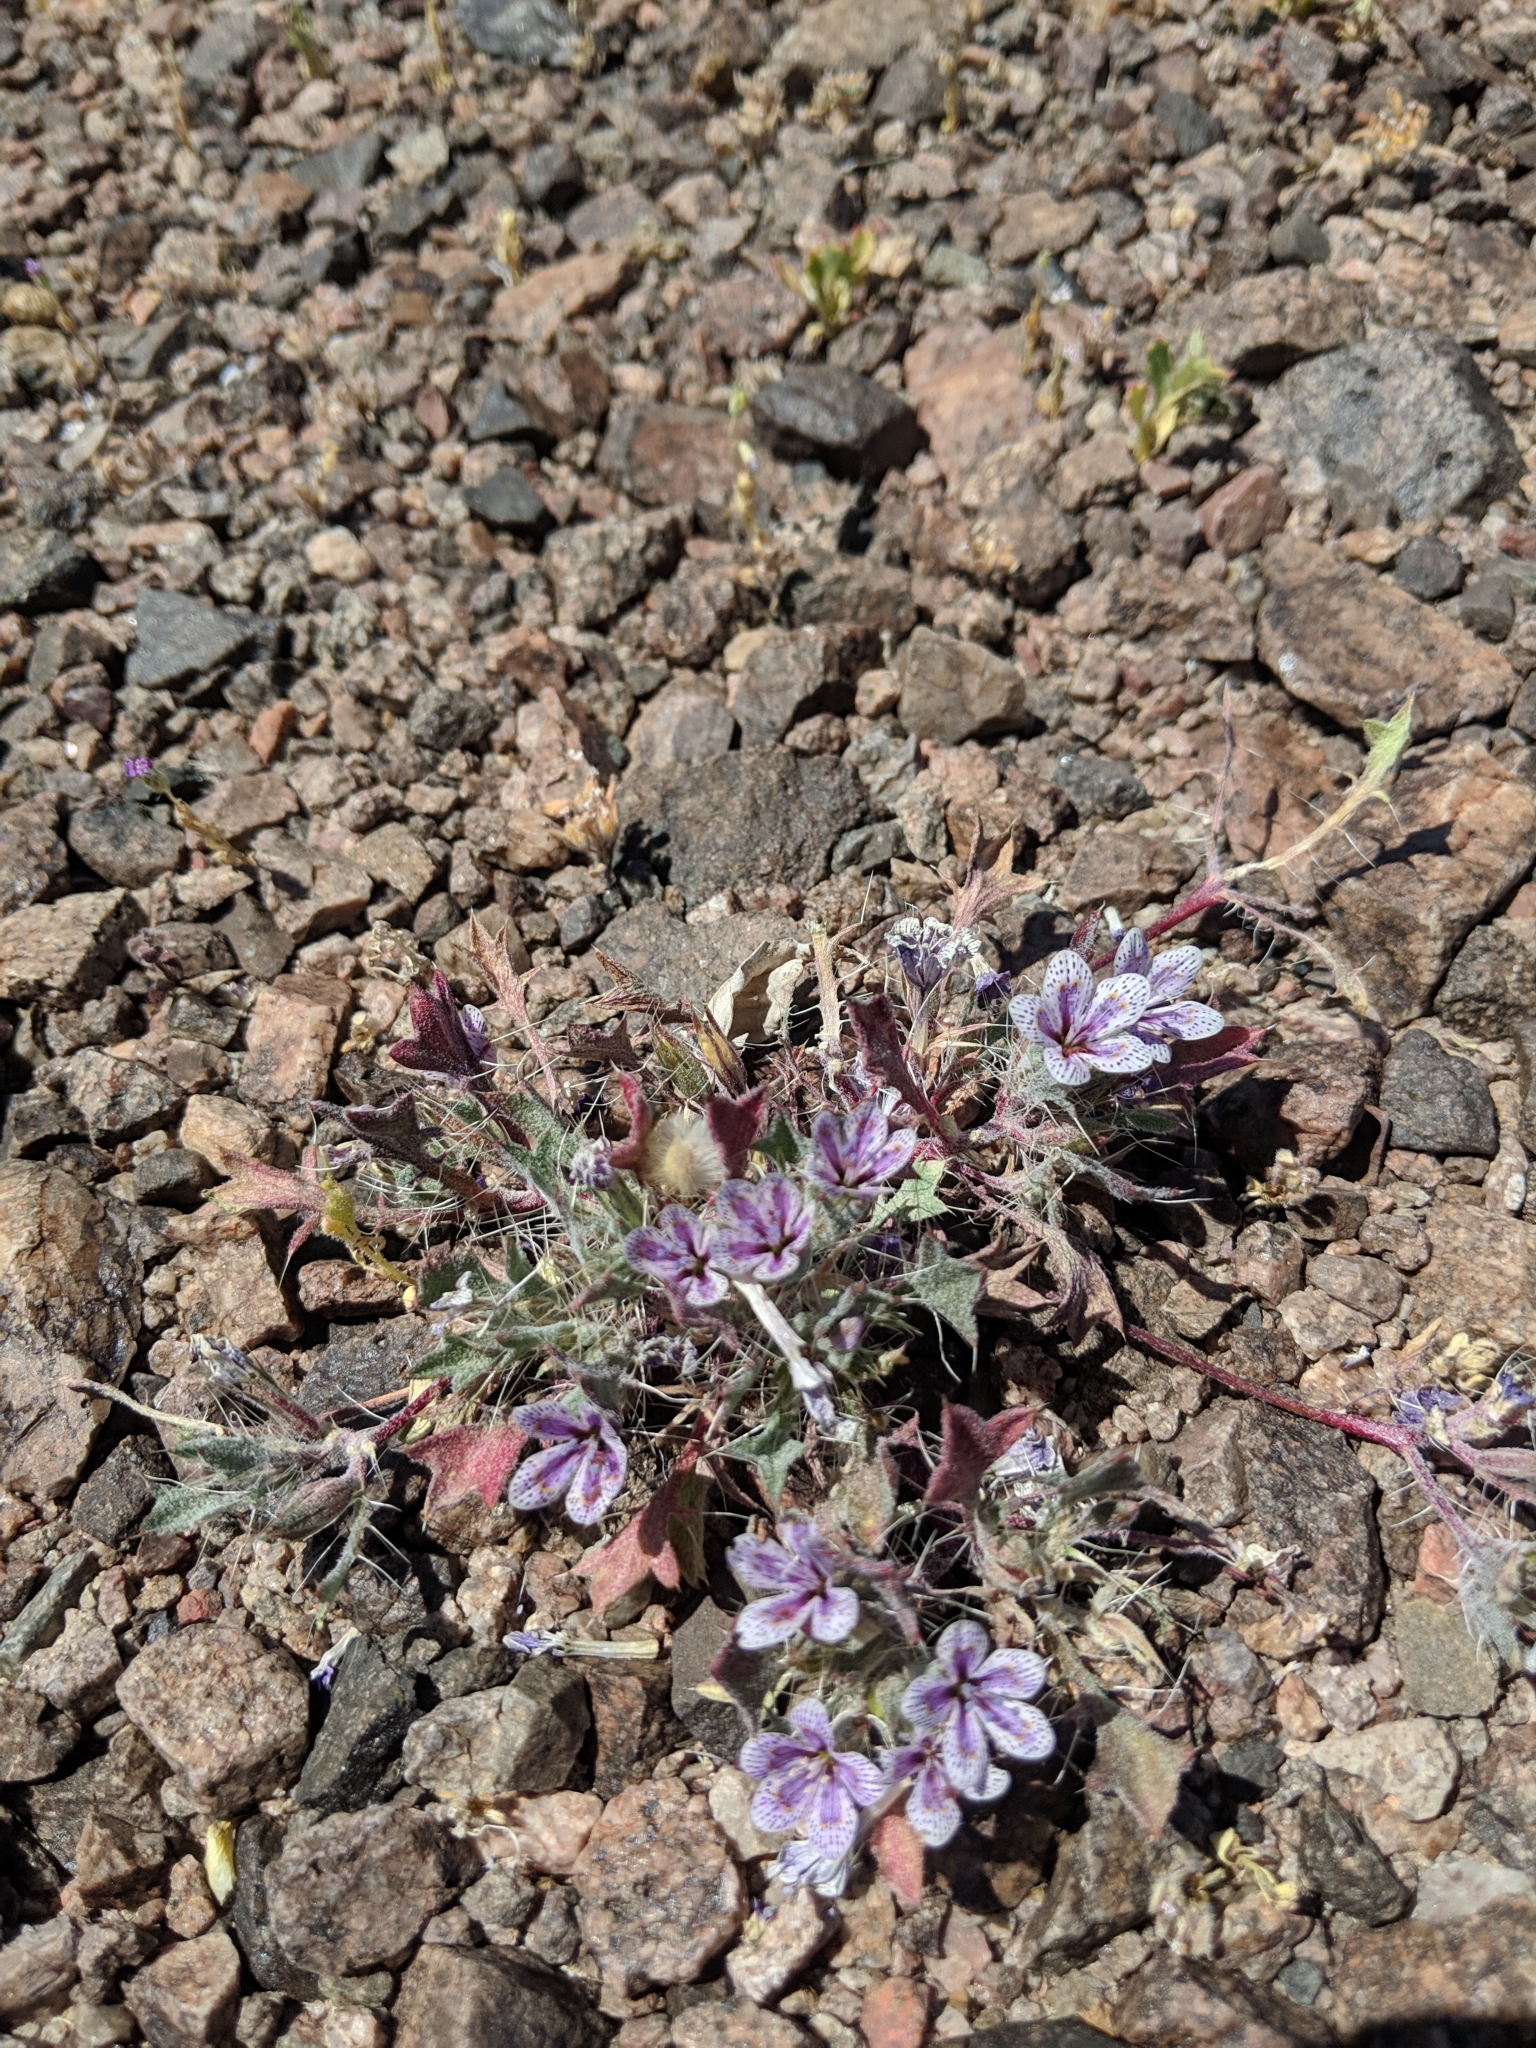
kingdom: Plantae
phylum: Tracheophyta
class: Magnoliopsida
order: Ericales
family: Polemoniaceae
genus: Langloisia
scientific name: Langloisia setosissima
